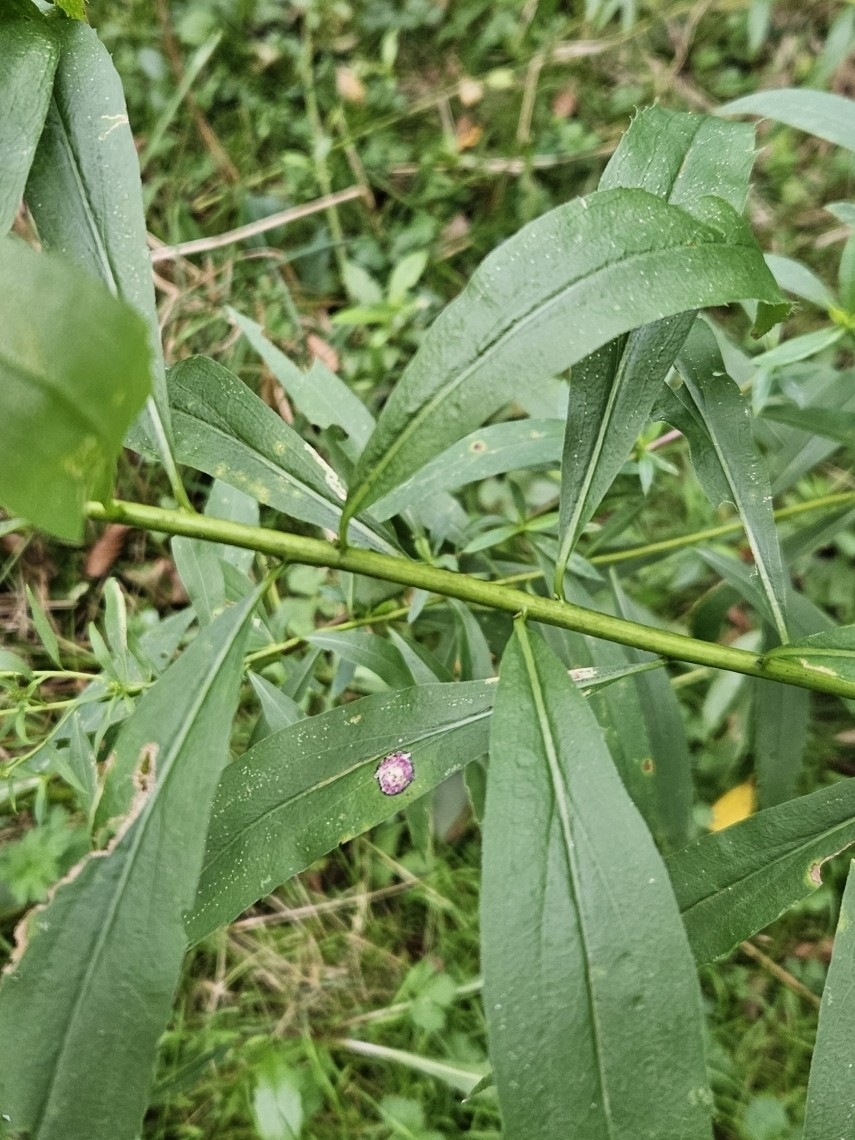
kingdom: Animalia
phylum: Arthropoda
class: Insecta
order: Diptera
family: Cecidomyiidae
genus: Asteromyia
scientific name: Asteromyia carbonifera
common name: Carbonifera goldenrod gall midge
